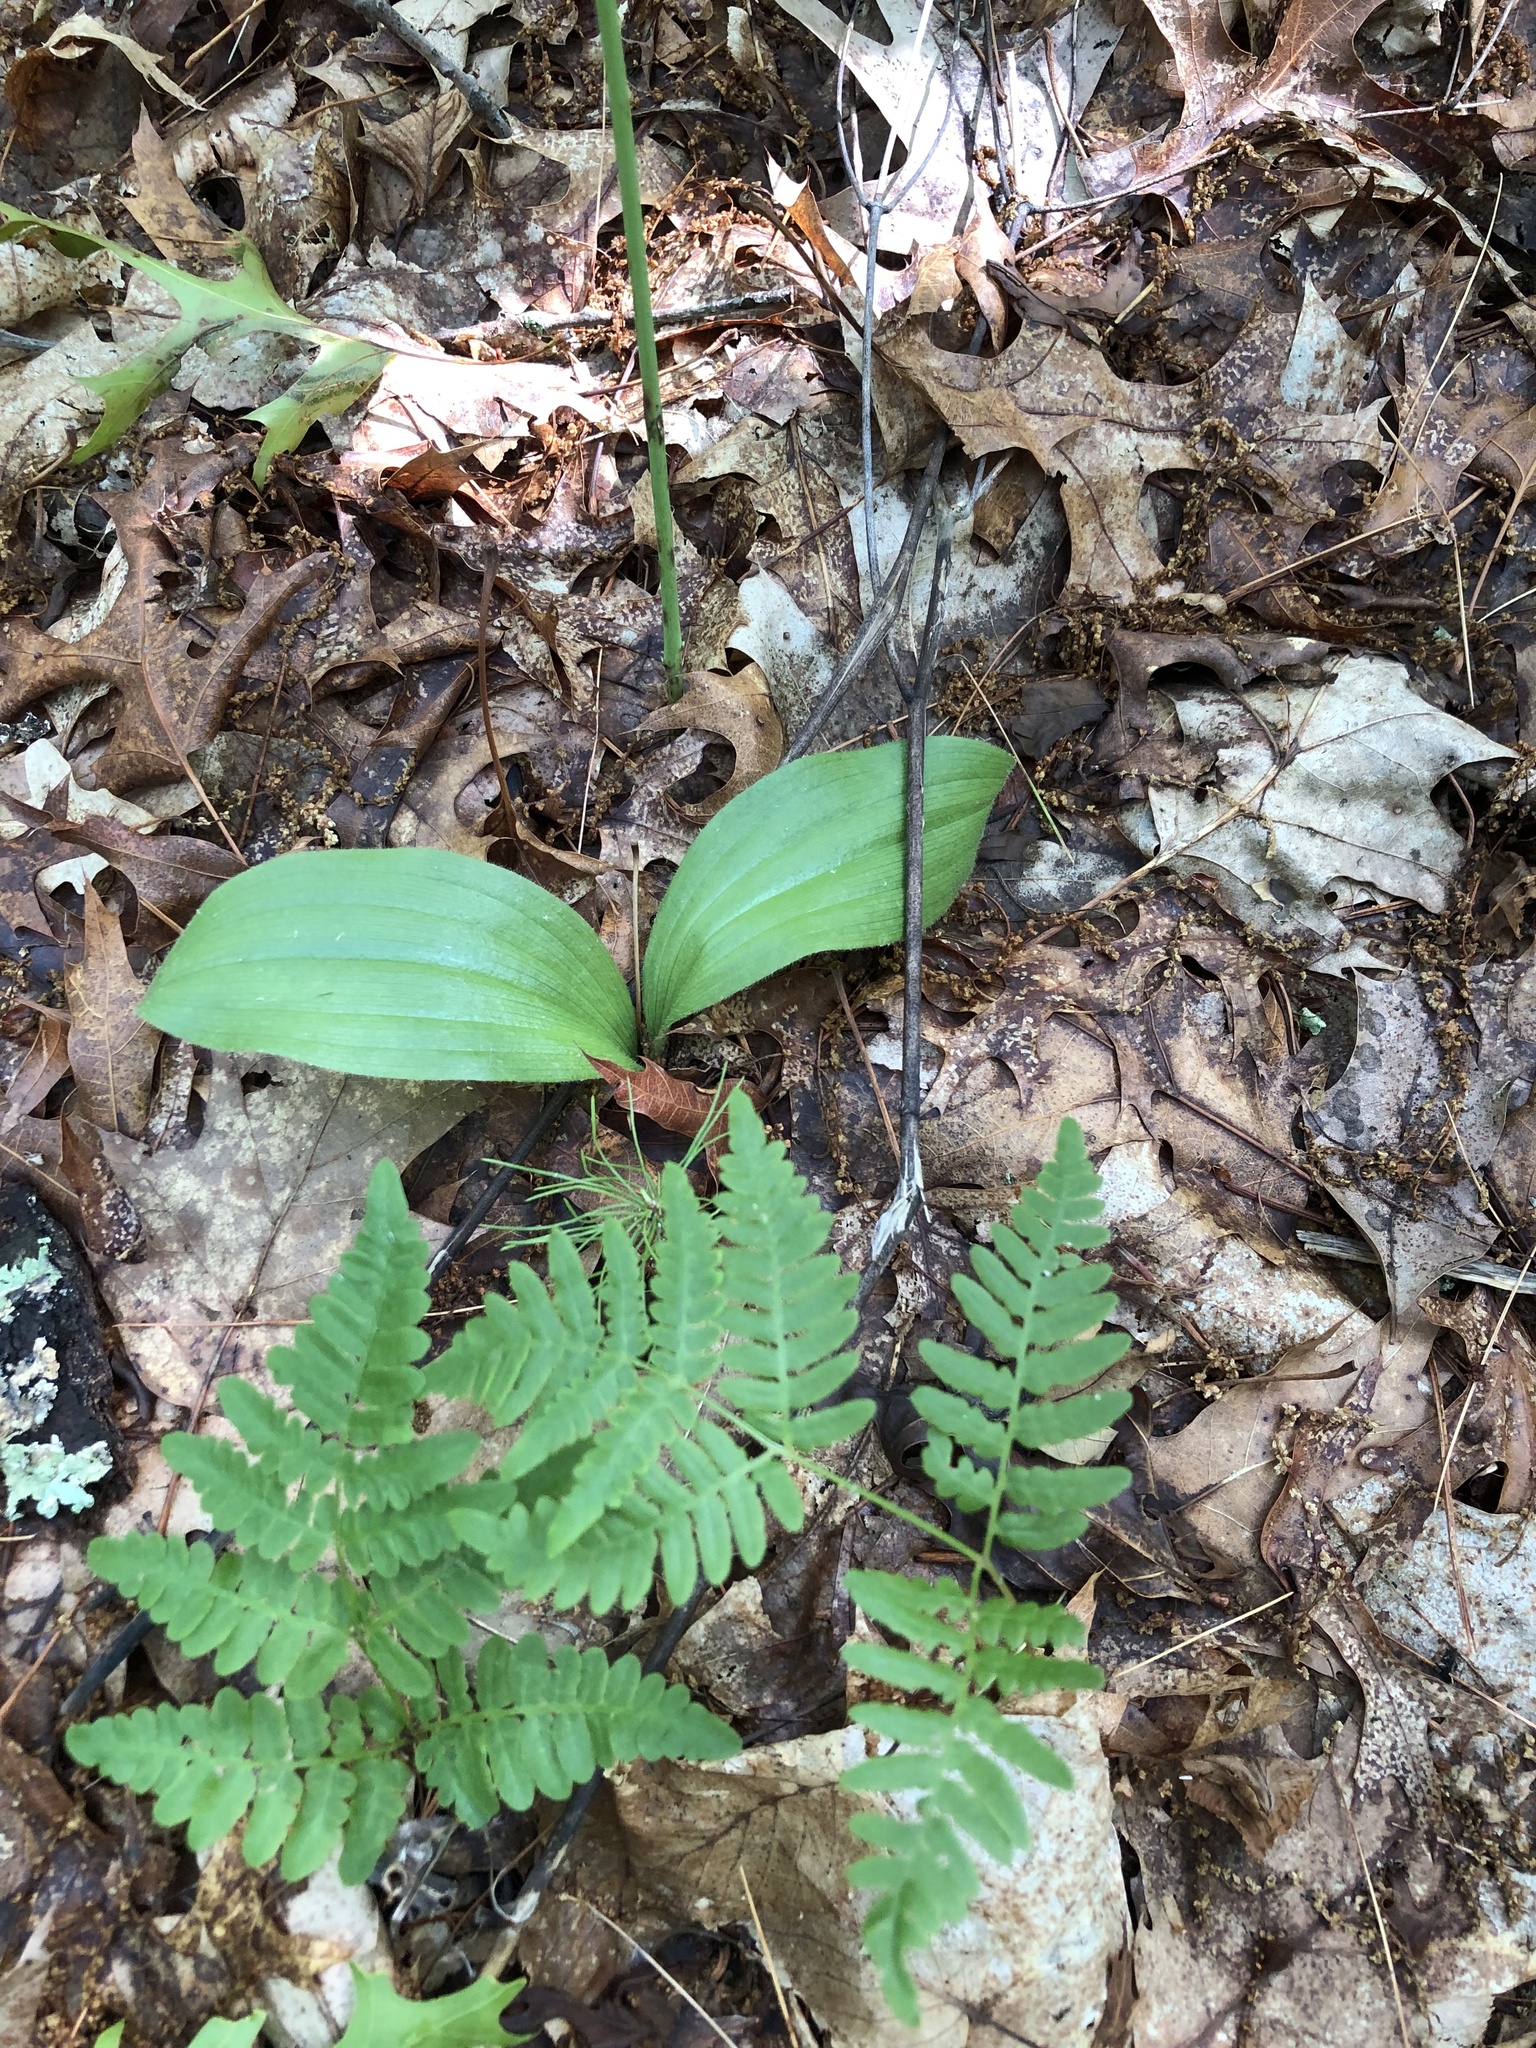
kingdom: Plantae
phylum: Tracheophyta
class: Liliopsida
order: Asparagales
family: Orchidaceae
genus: Cypripedium
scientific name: Cypripedium acaule
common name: Pink lady's-slipper
